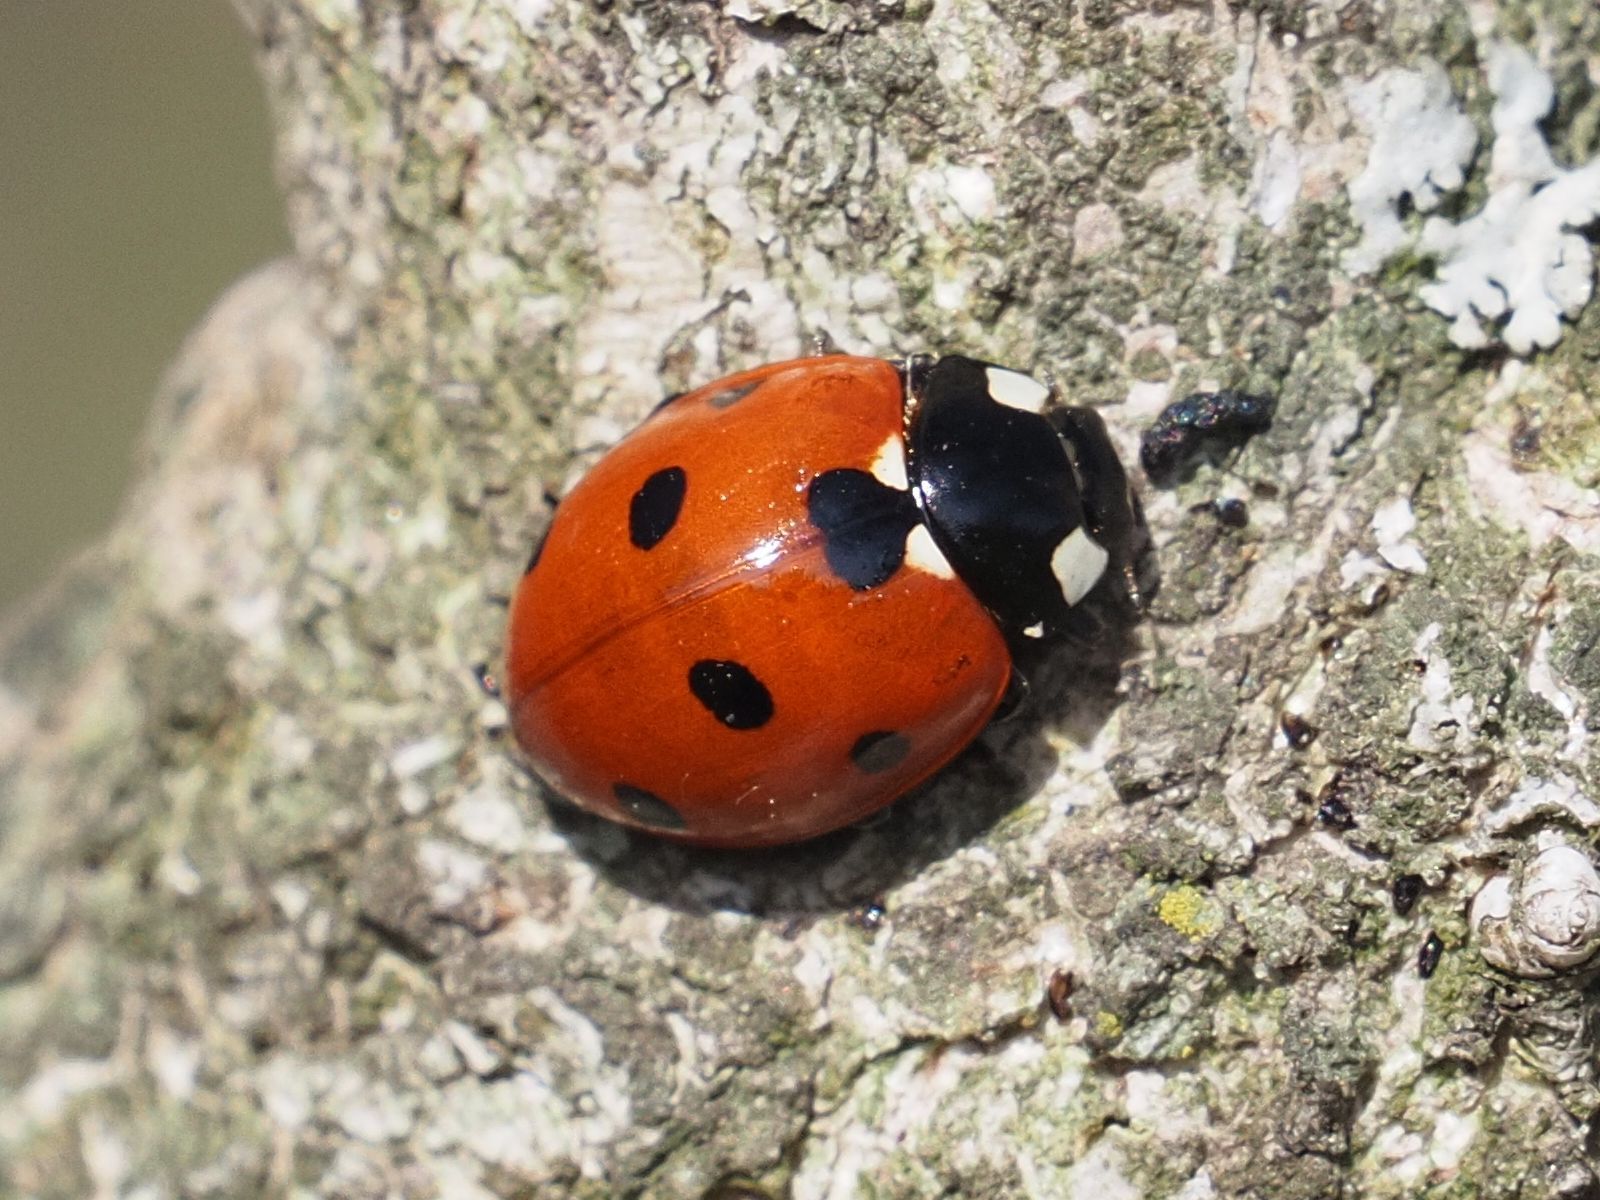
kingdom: Animalia
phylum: Arthropoda
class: Insecta
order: Coleoptera
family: Coccinellidae
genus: Coccinella
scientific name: Coccinella septempunctata
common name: Sevenspotted lady beetle
